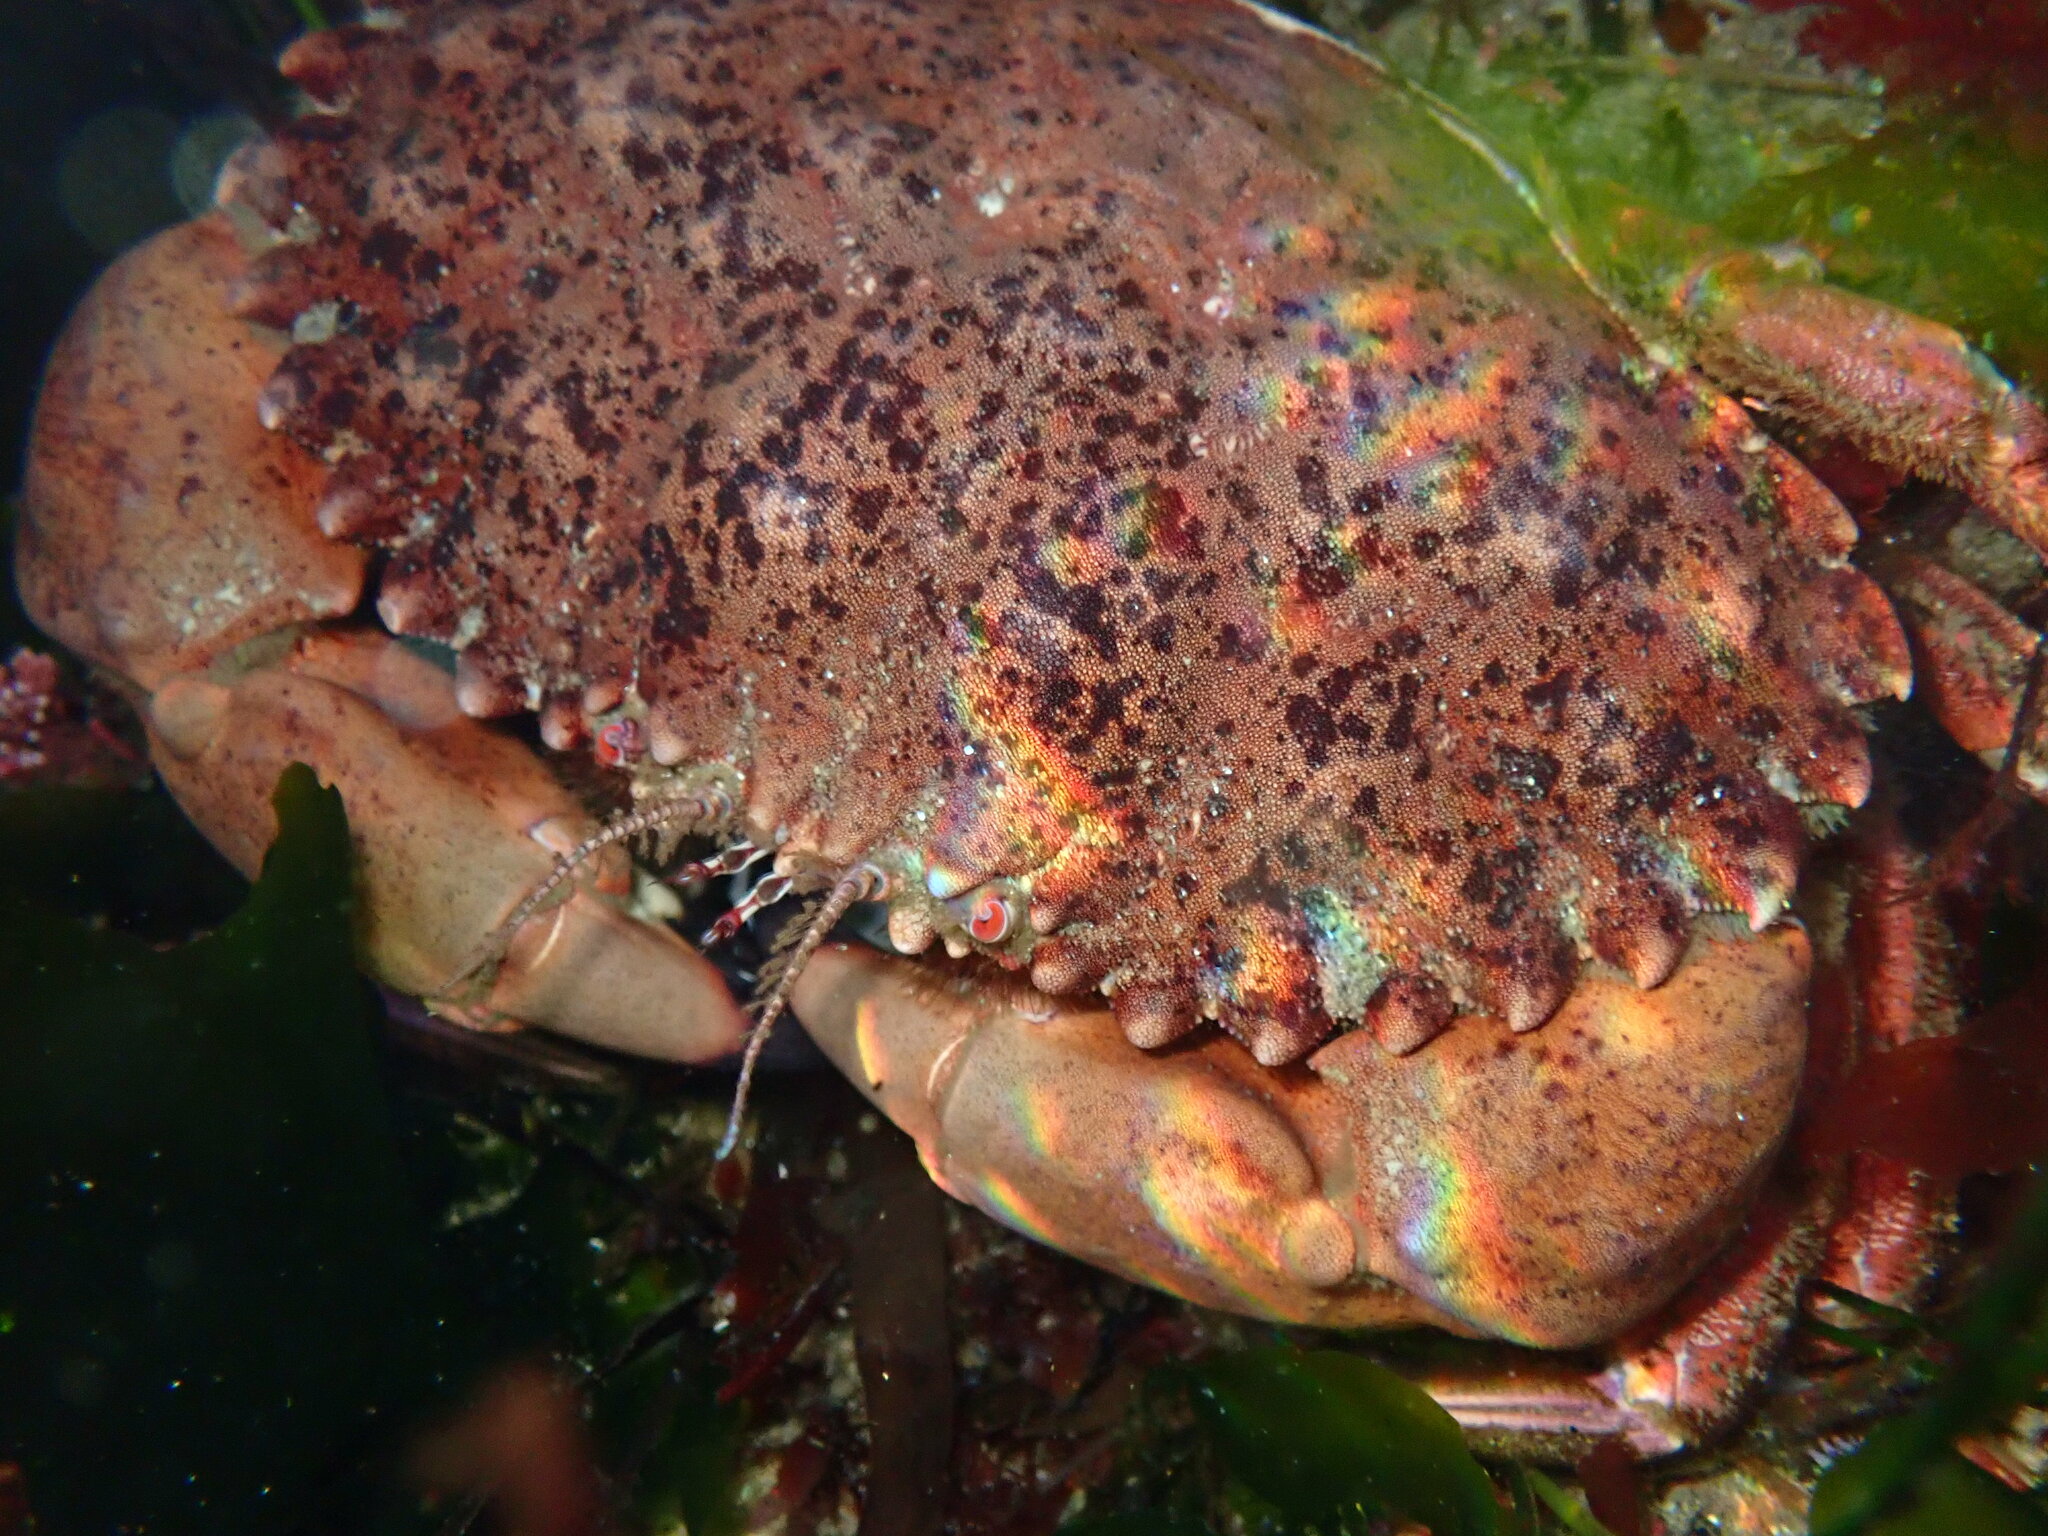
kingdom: Animalia
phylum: Arthropoda
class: Malacostraca
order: Decapoda
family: Cancridae
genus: Romaleon
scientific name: Romaleon antennarium
